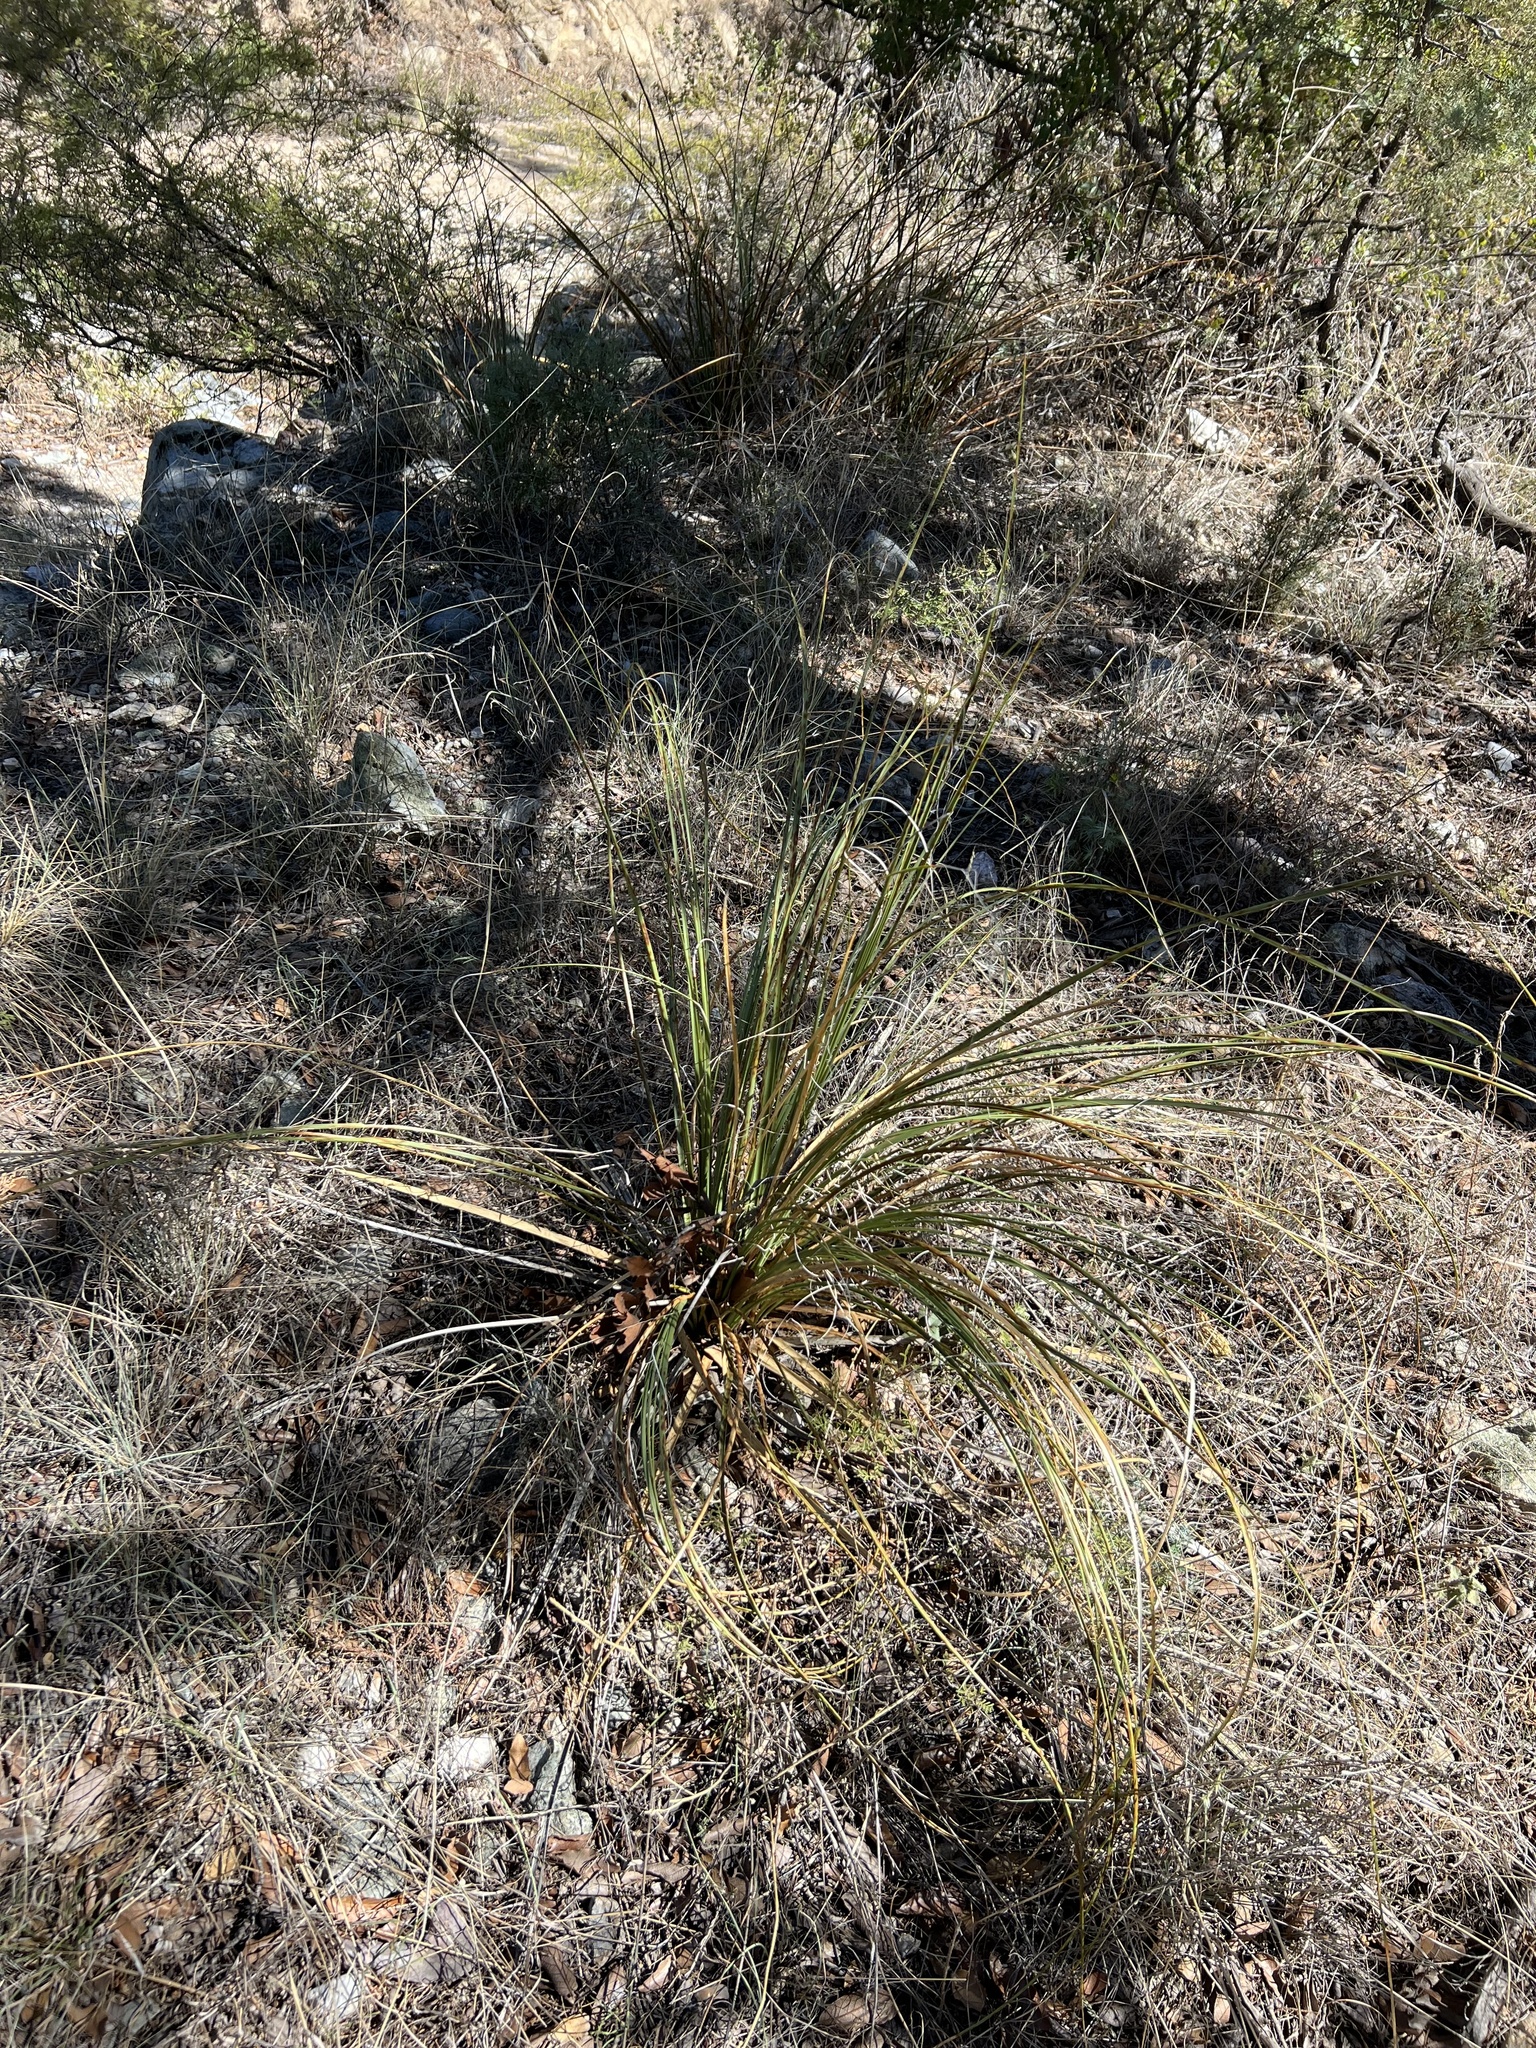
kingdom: Plantae
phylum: Tracheophyta
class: Liliopsida
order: Asparagales
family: Asparagaceae
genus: Nolina
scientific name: Nolina microcarpa
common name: Bear-grass
